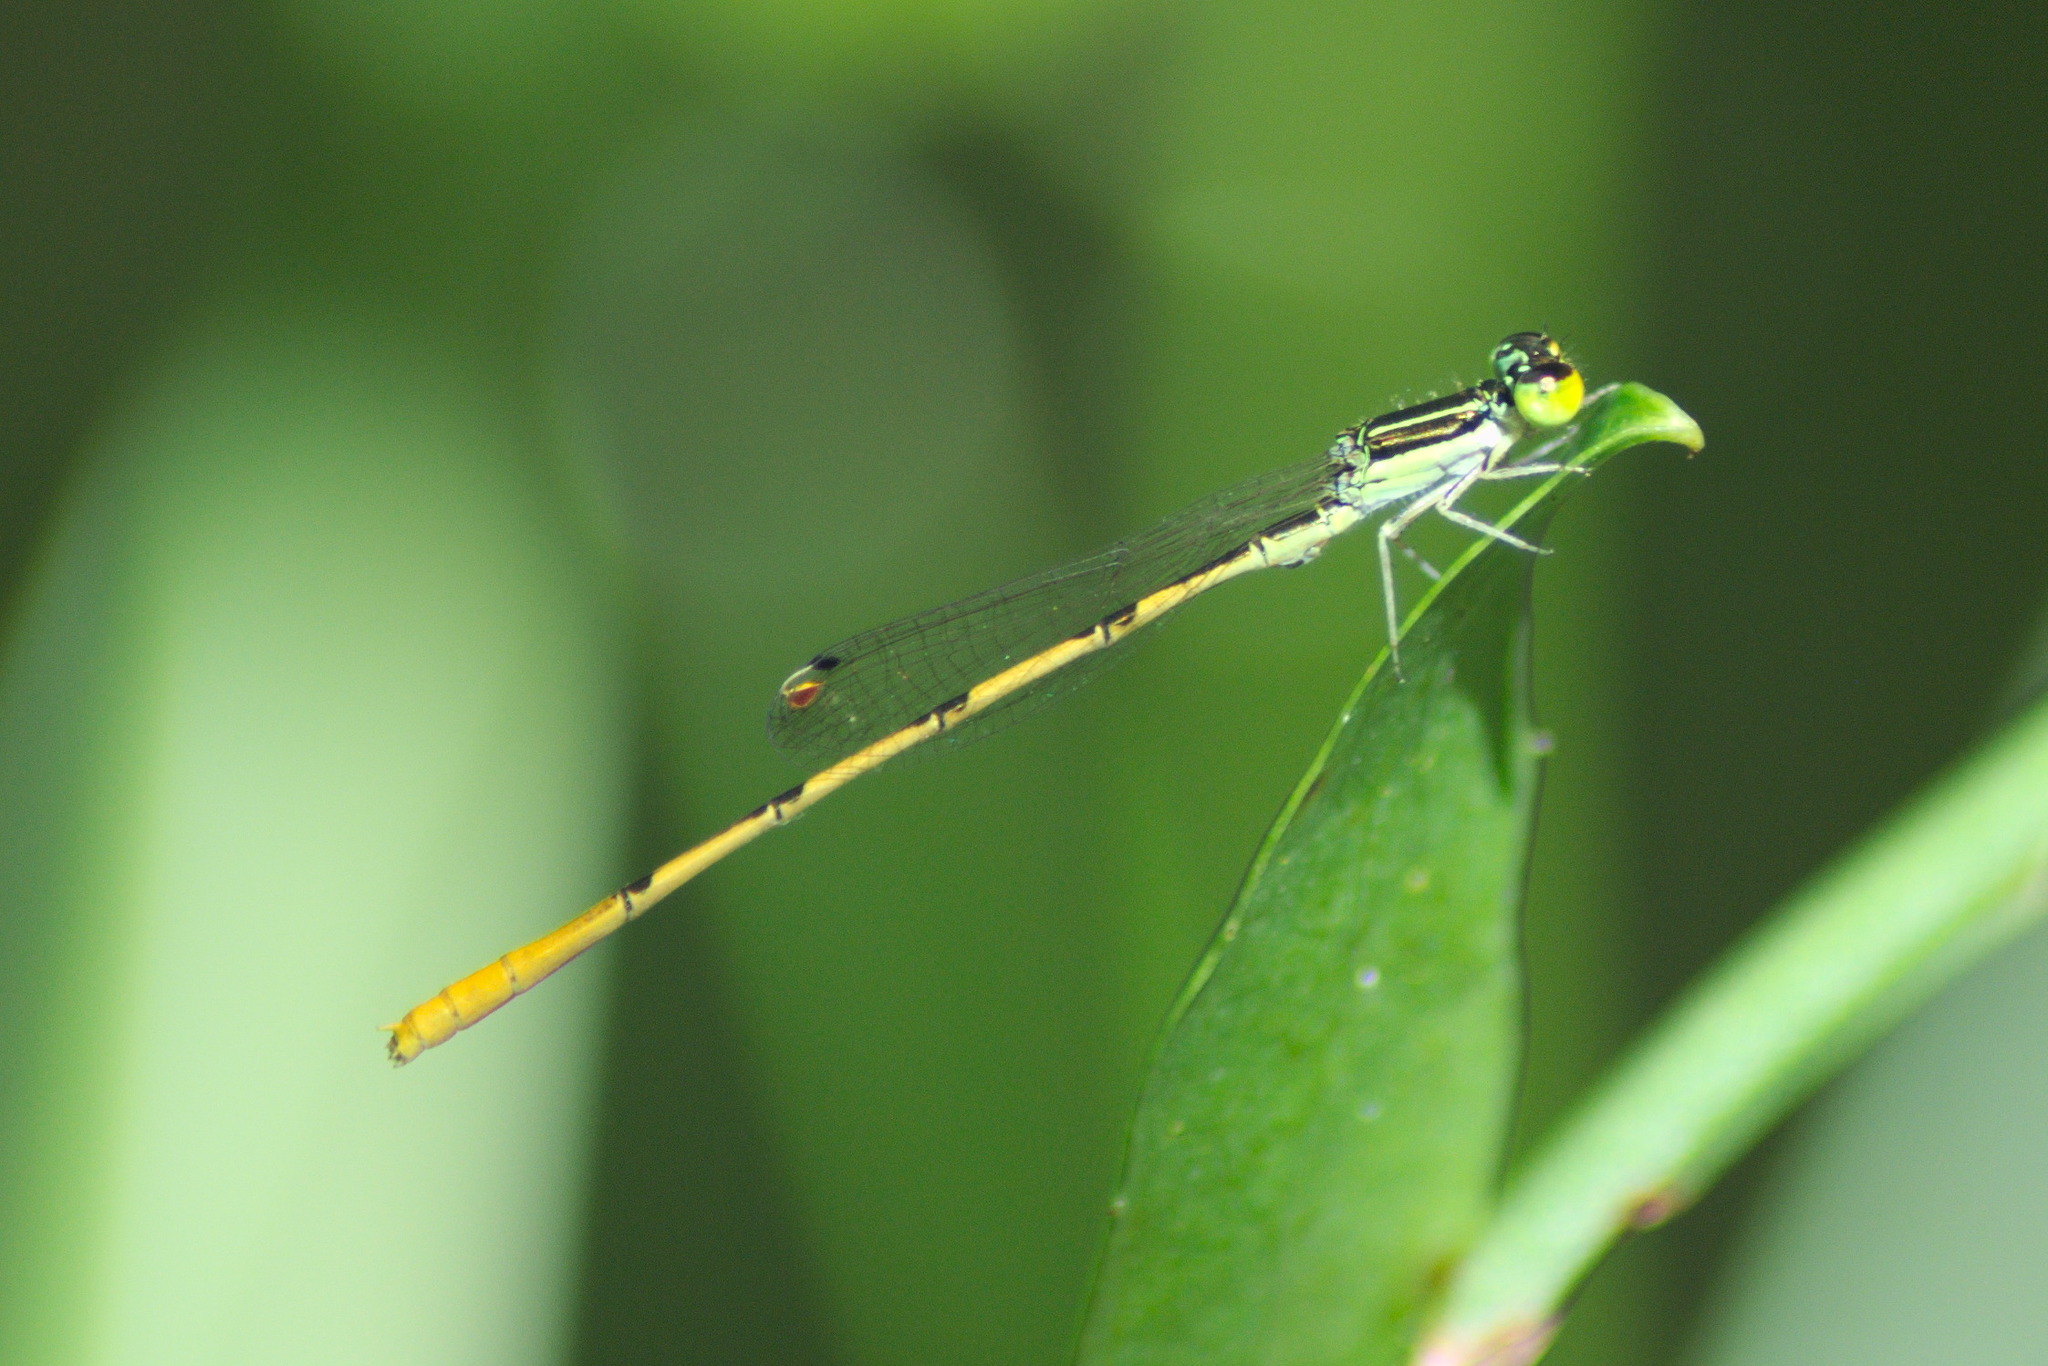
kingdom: Animalia
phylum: Arthropoda
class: Insecta
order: Odonata
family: Coenagrionidae
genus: Ischnura
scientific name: Ischnura hastata
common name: Citrine forktail
